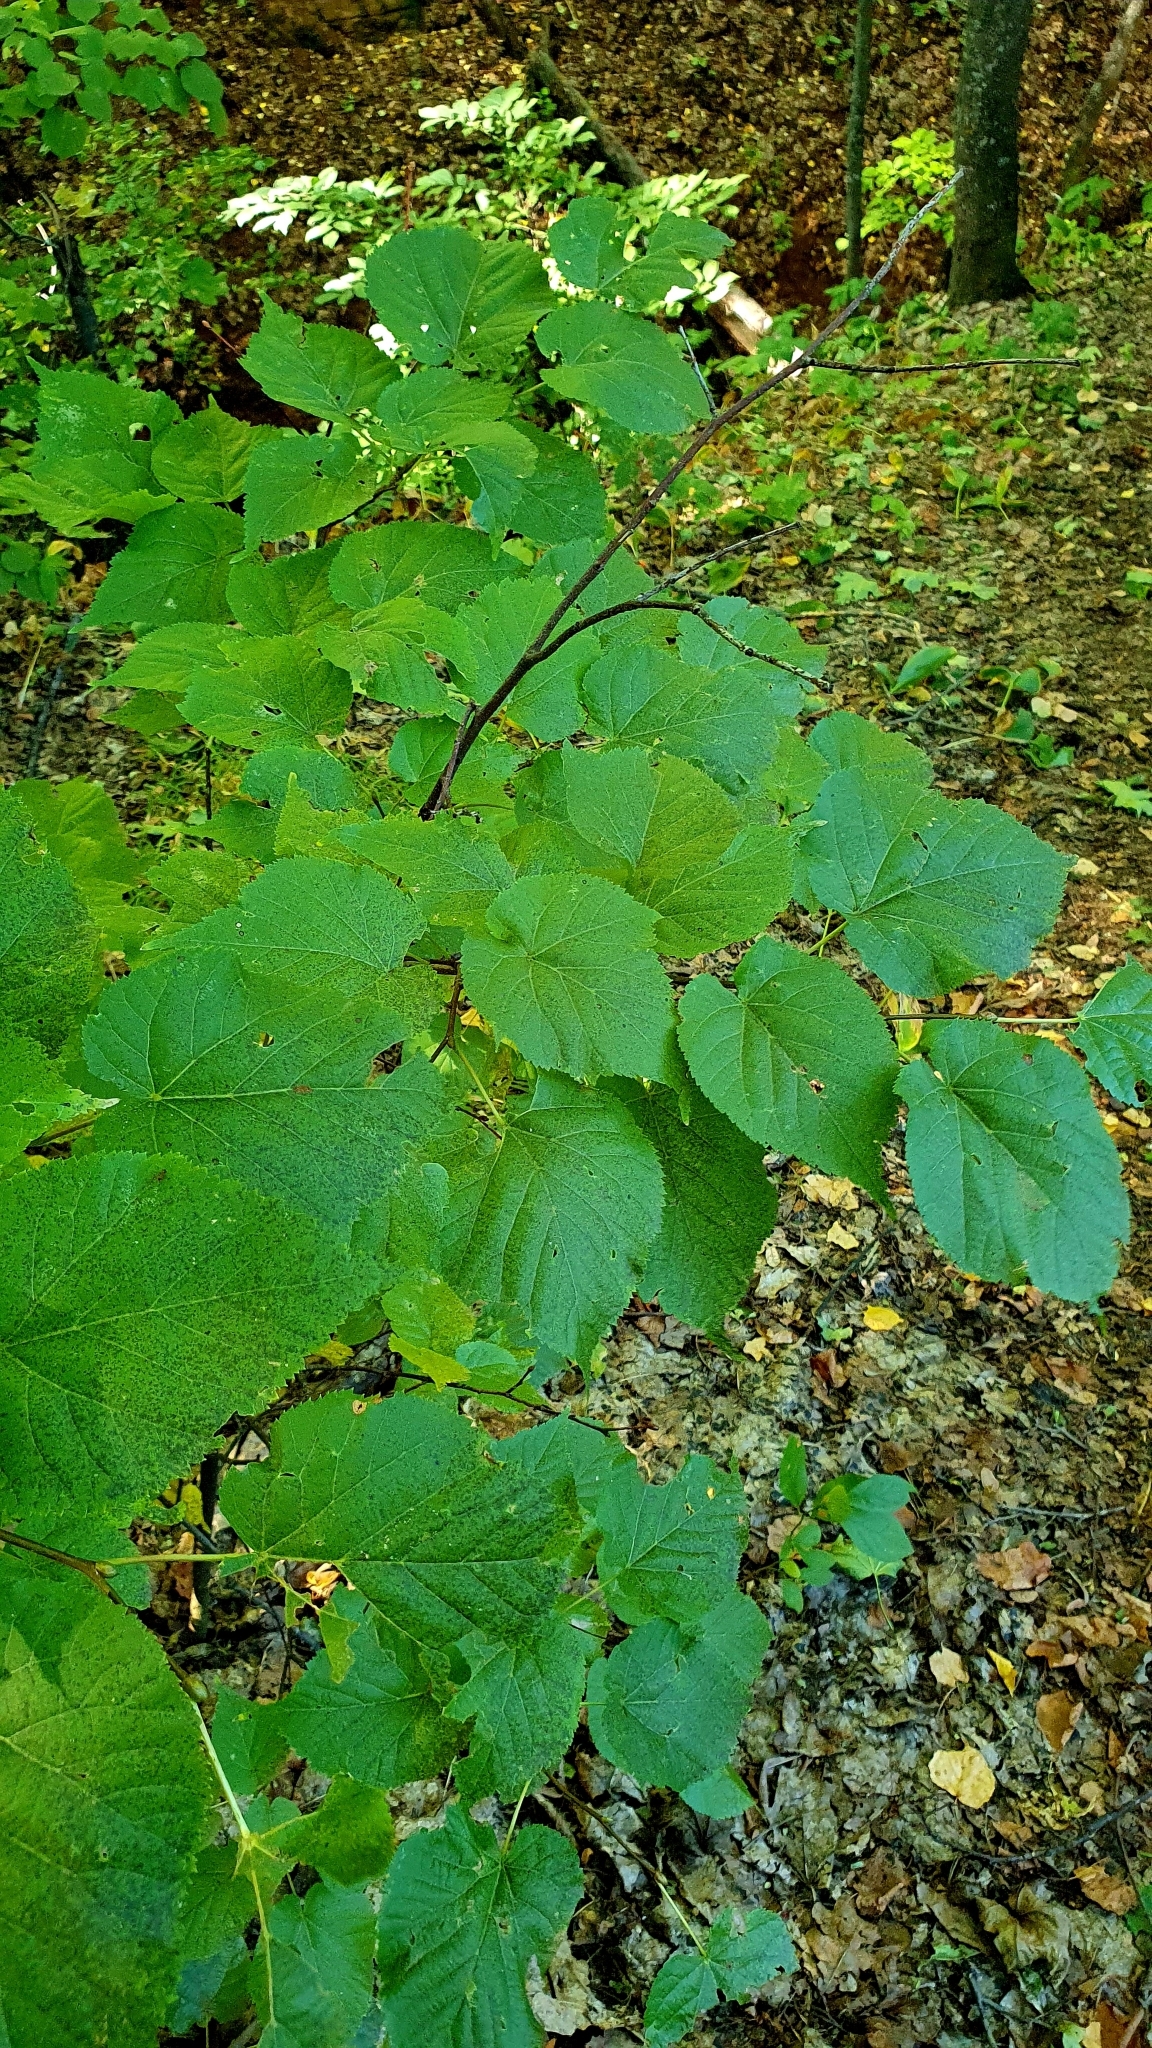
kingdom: Plantae
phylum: Tracheophyta
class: Magnoliopsida
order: Malvales
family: Malvaceae
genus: Tilia
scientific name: Tilia cordata
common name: Small-leaved lime
